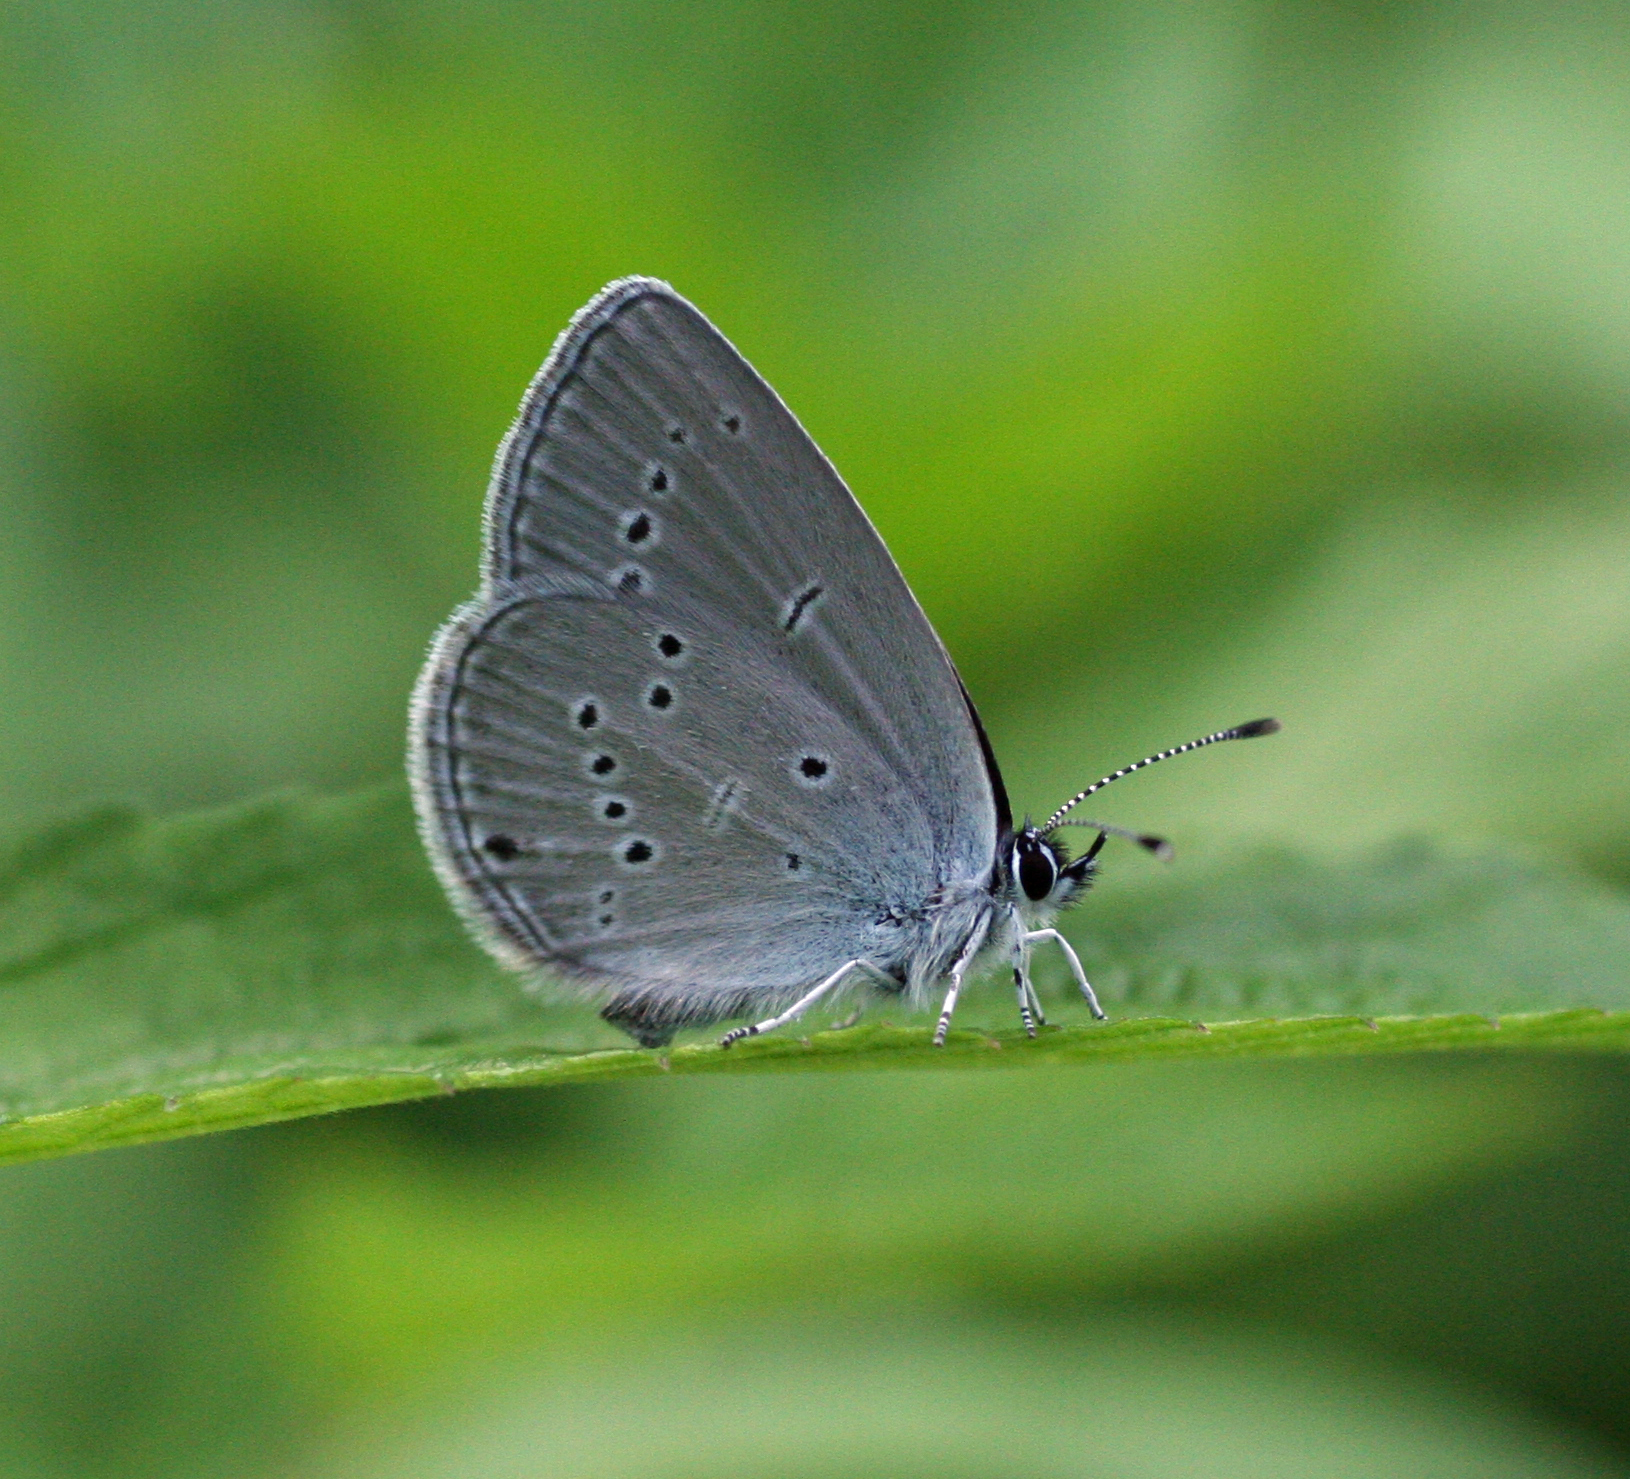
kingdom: Animalia
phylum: Arthropoda
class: Insecta
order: Lepidoptera
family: Lycaenidae
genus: Cupido
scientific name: Cupido minimus
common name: Small blue
